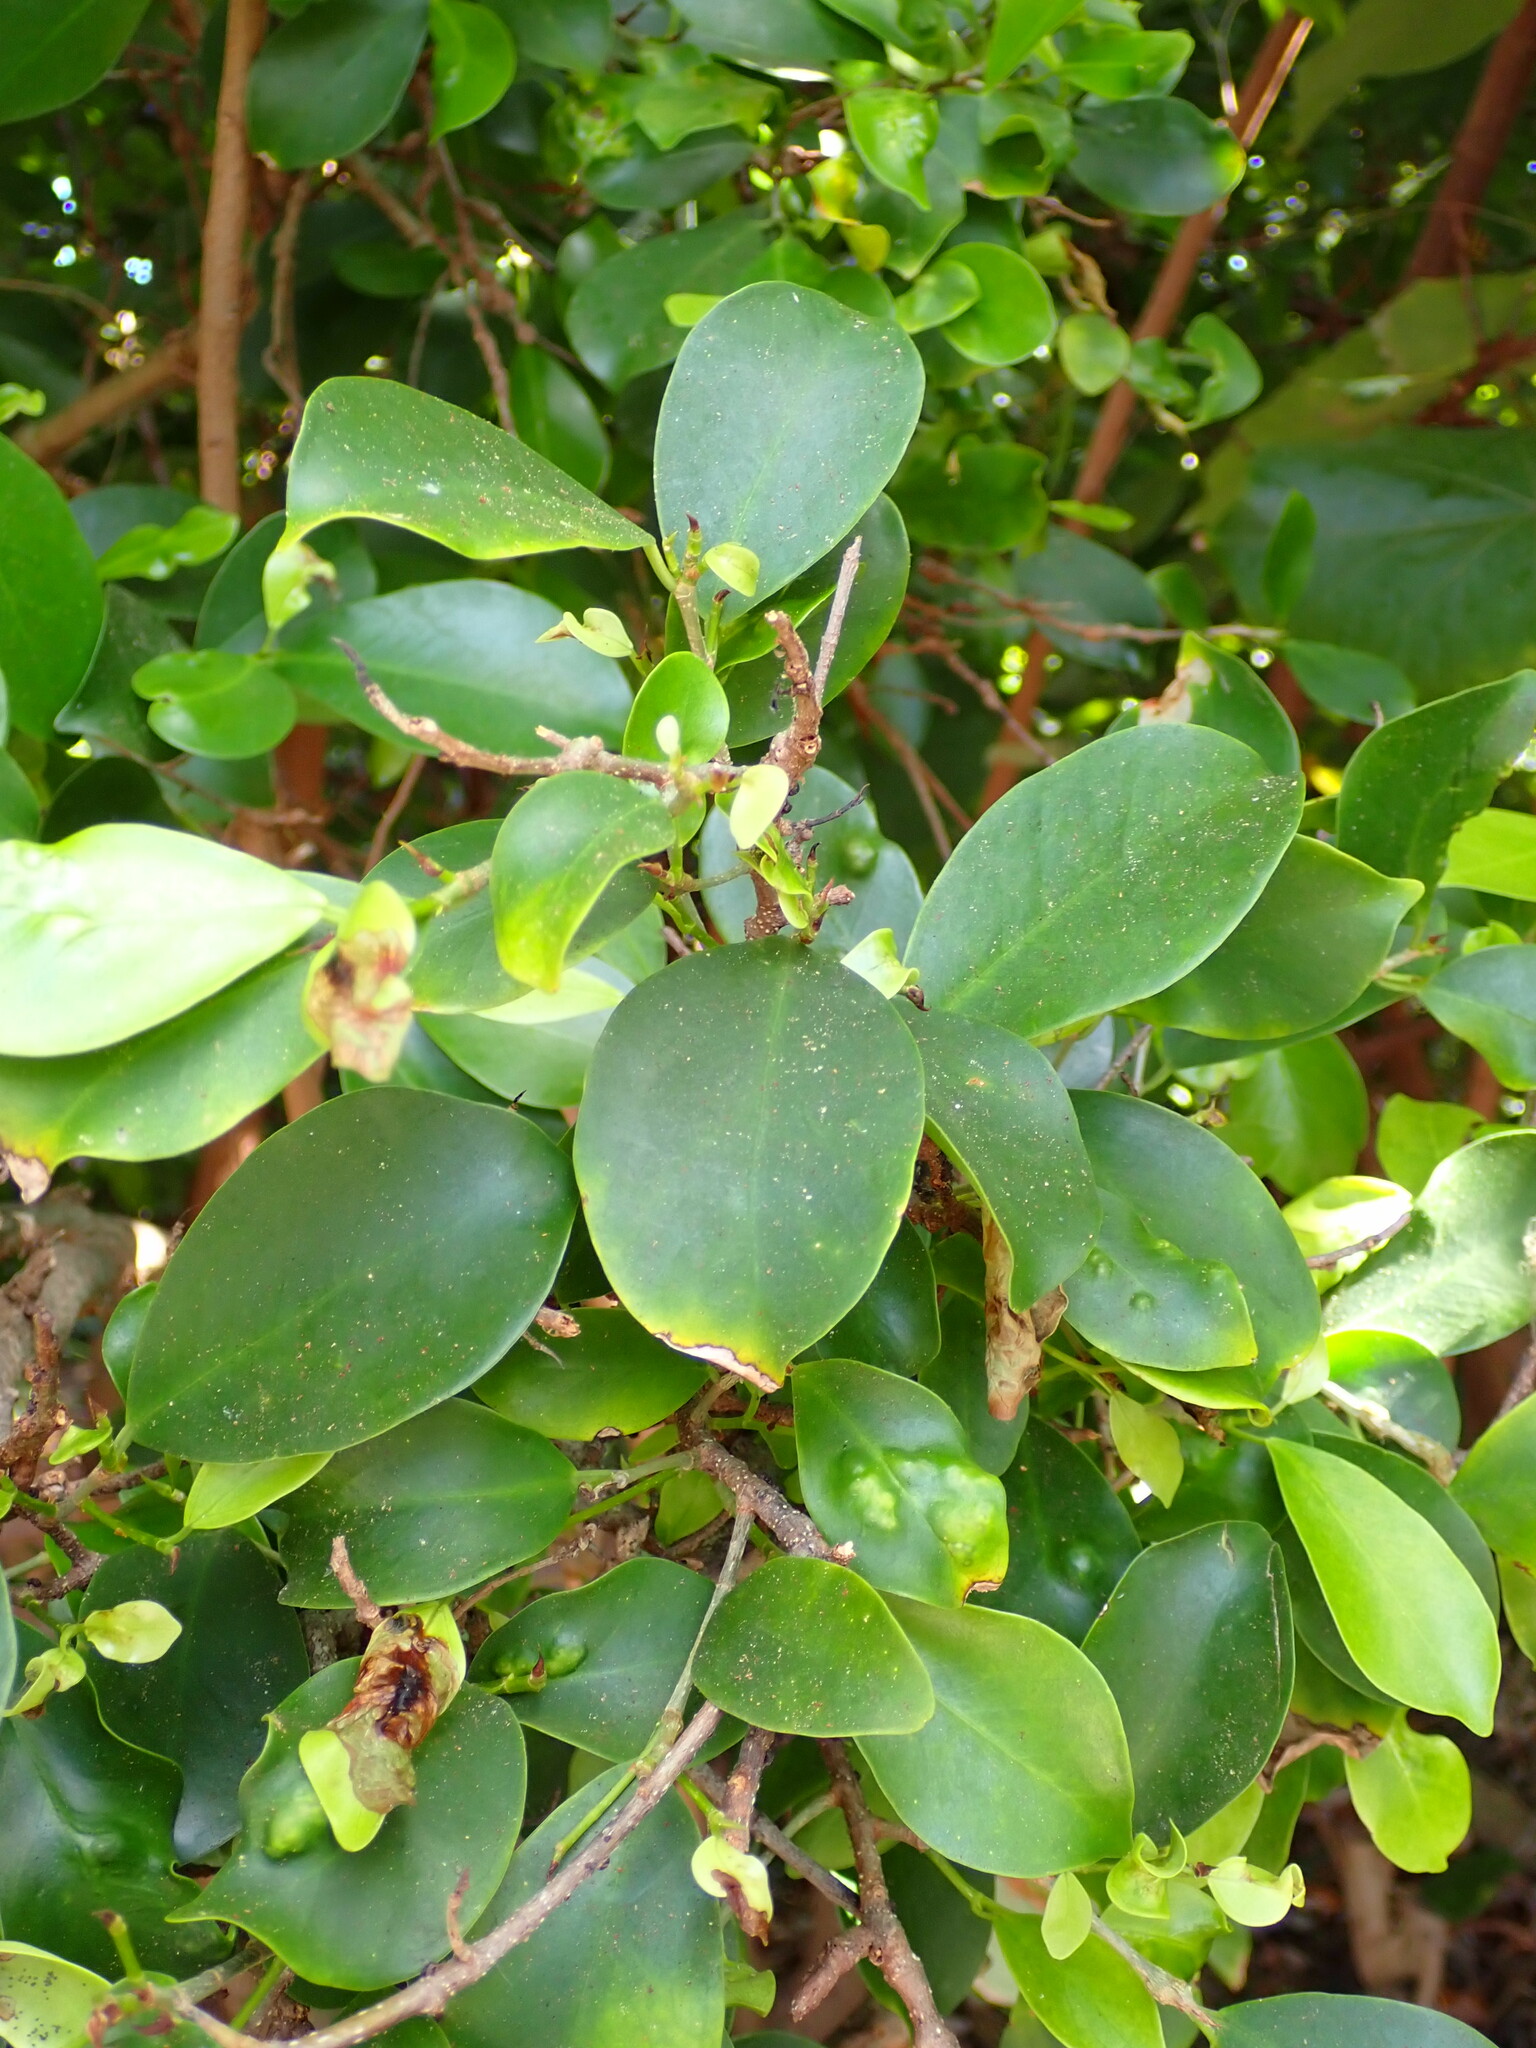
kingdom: Plantae
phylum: Tracheophyta
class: Magnoliopsida
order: Rosales
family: Moraceae
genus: Ficus
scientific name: Ficus microcarpa
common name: Chinese banyan
